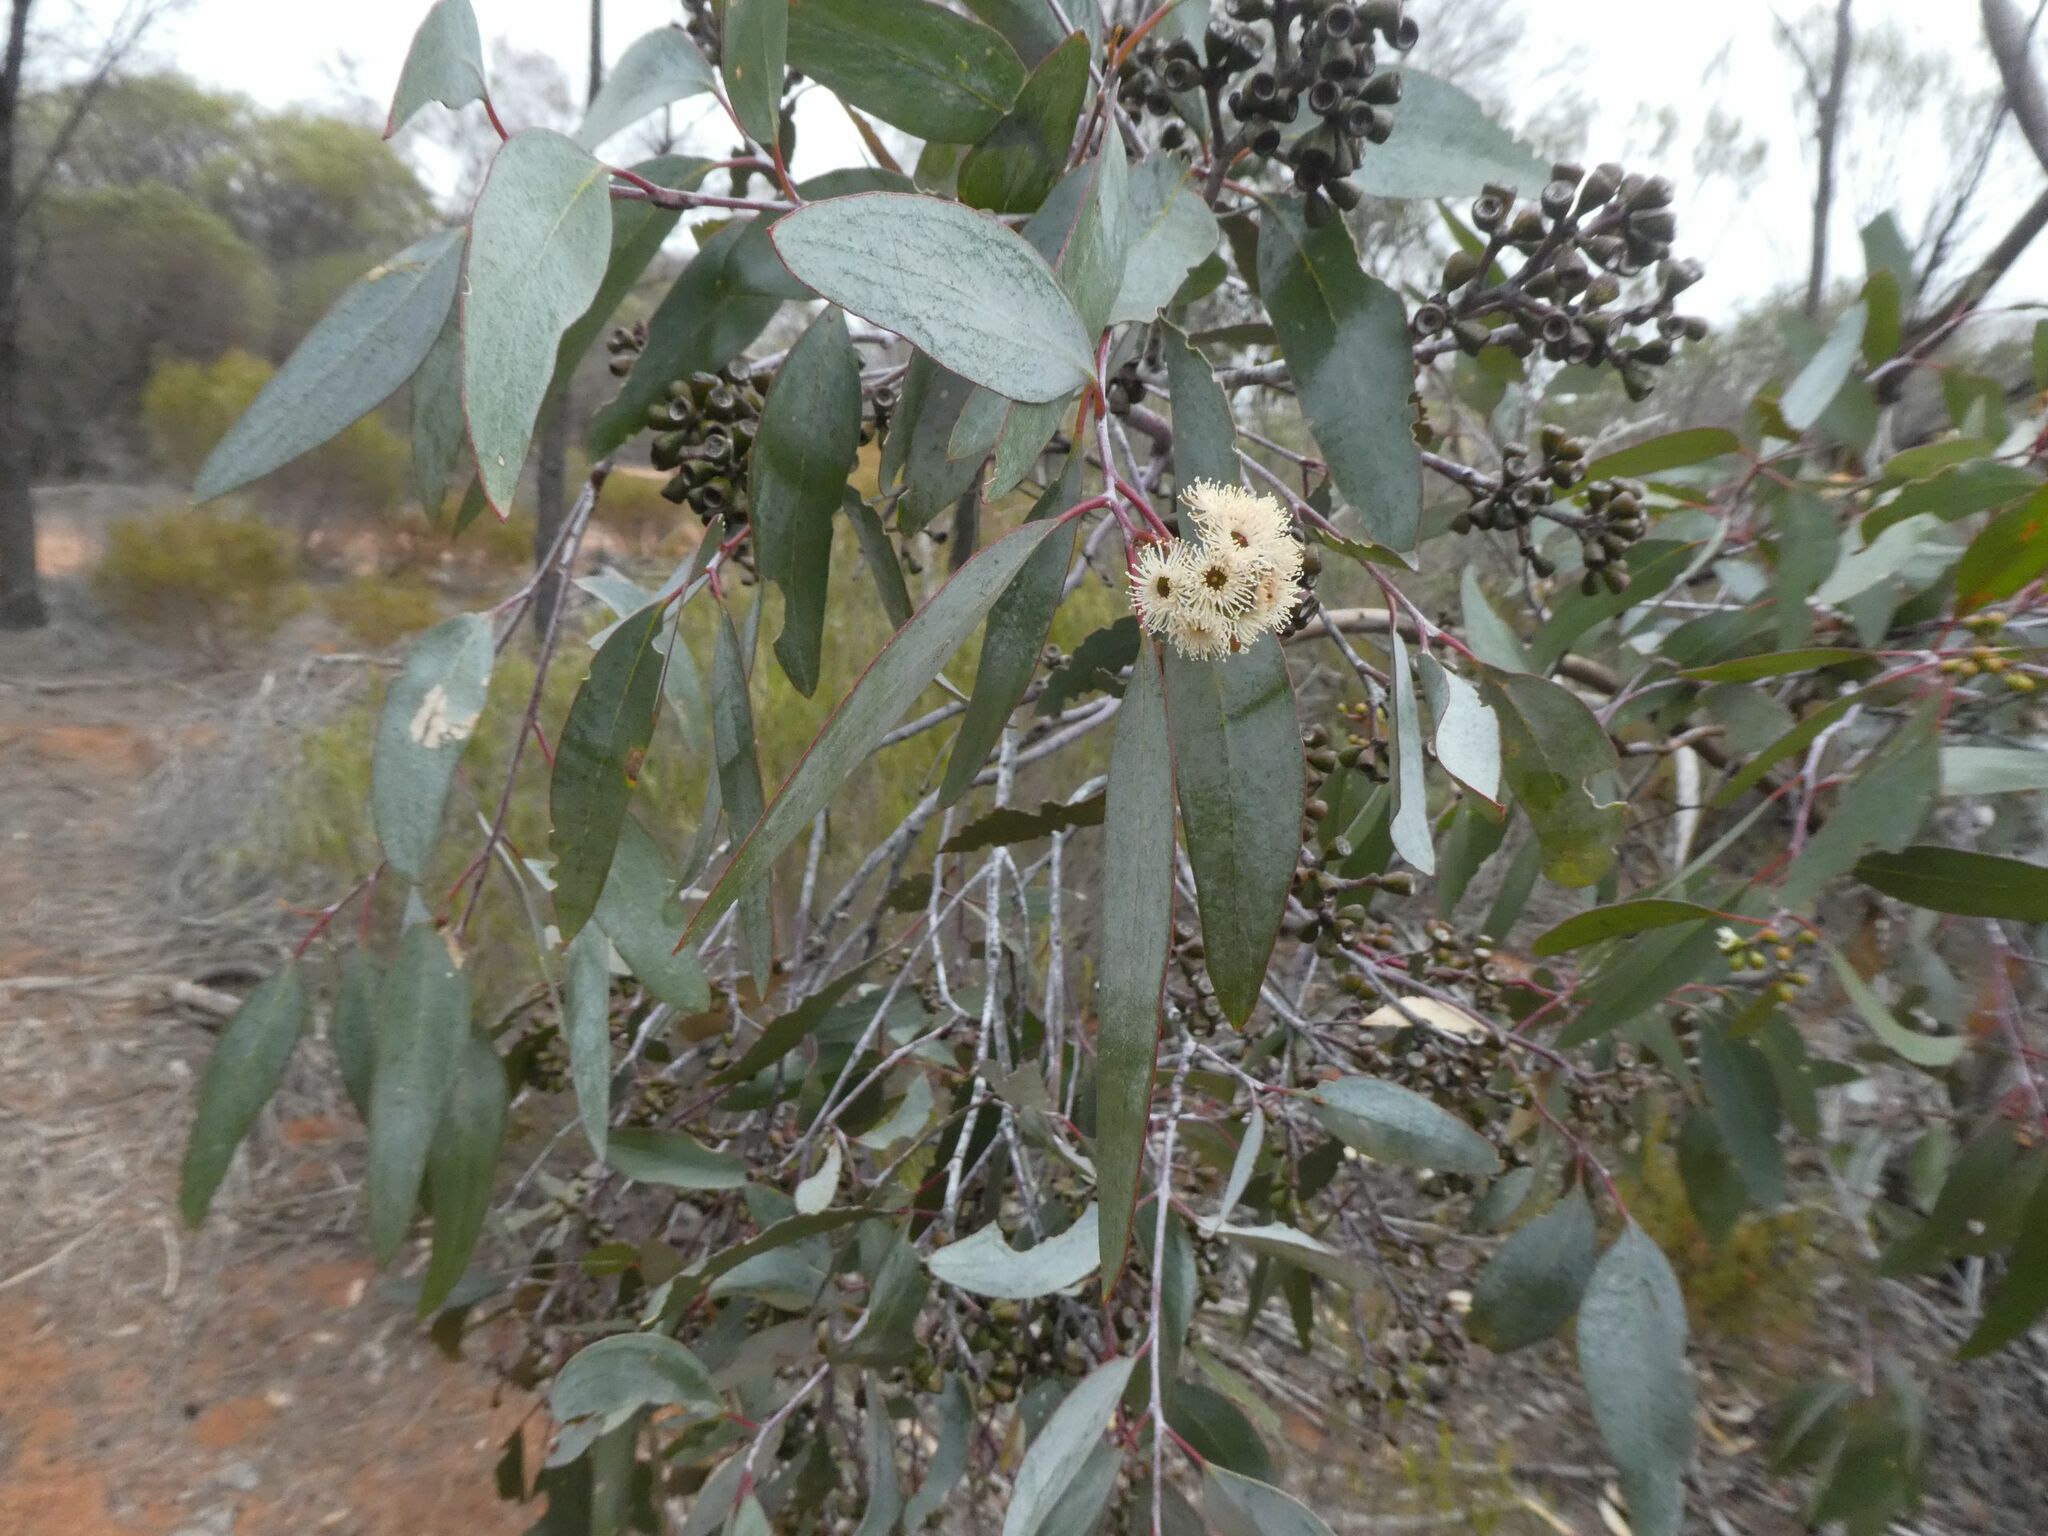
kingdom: Plantae
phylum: Tracheophyta
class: Magnoliopsida
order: Myrtales
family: Myrtaceae
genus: Eucalyptus
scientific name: Eucalyptus loxophleba
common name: York gum
